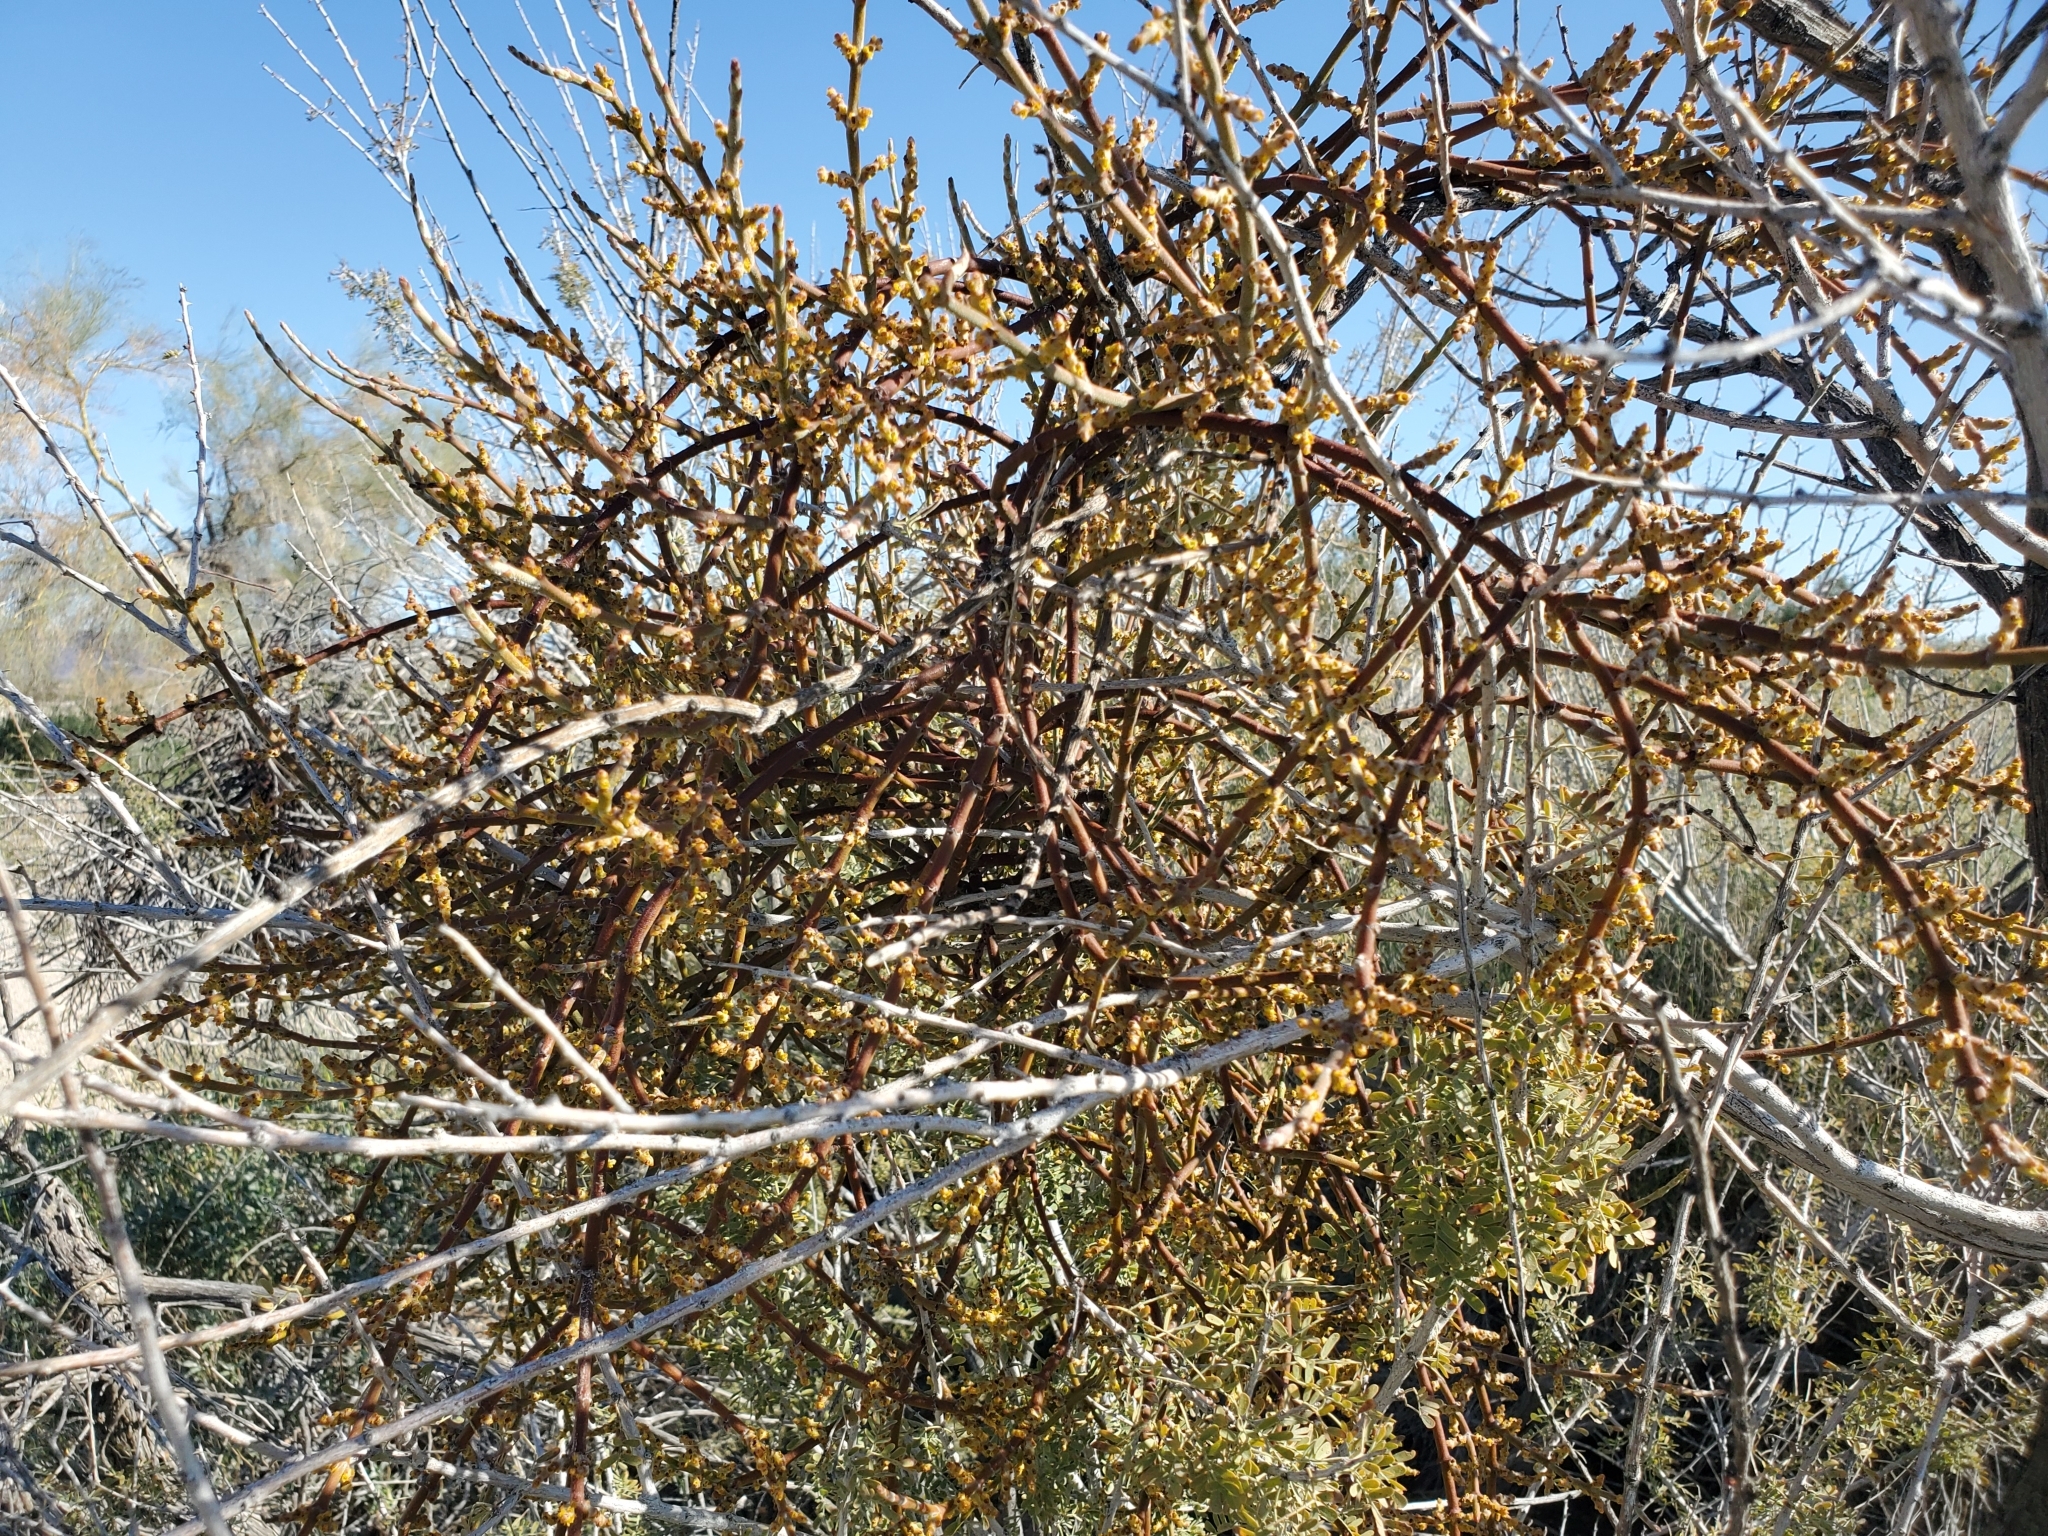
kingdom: Plantae
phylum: Tracheophyta
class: Magnoliopsida
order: Fabales
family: Fabaceae
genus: Senegalia
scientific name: Senegalia greggii
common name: Texas-mimosa
